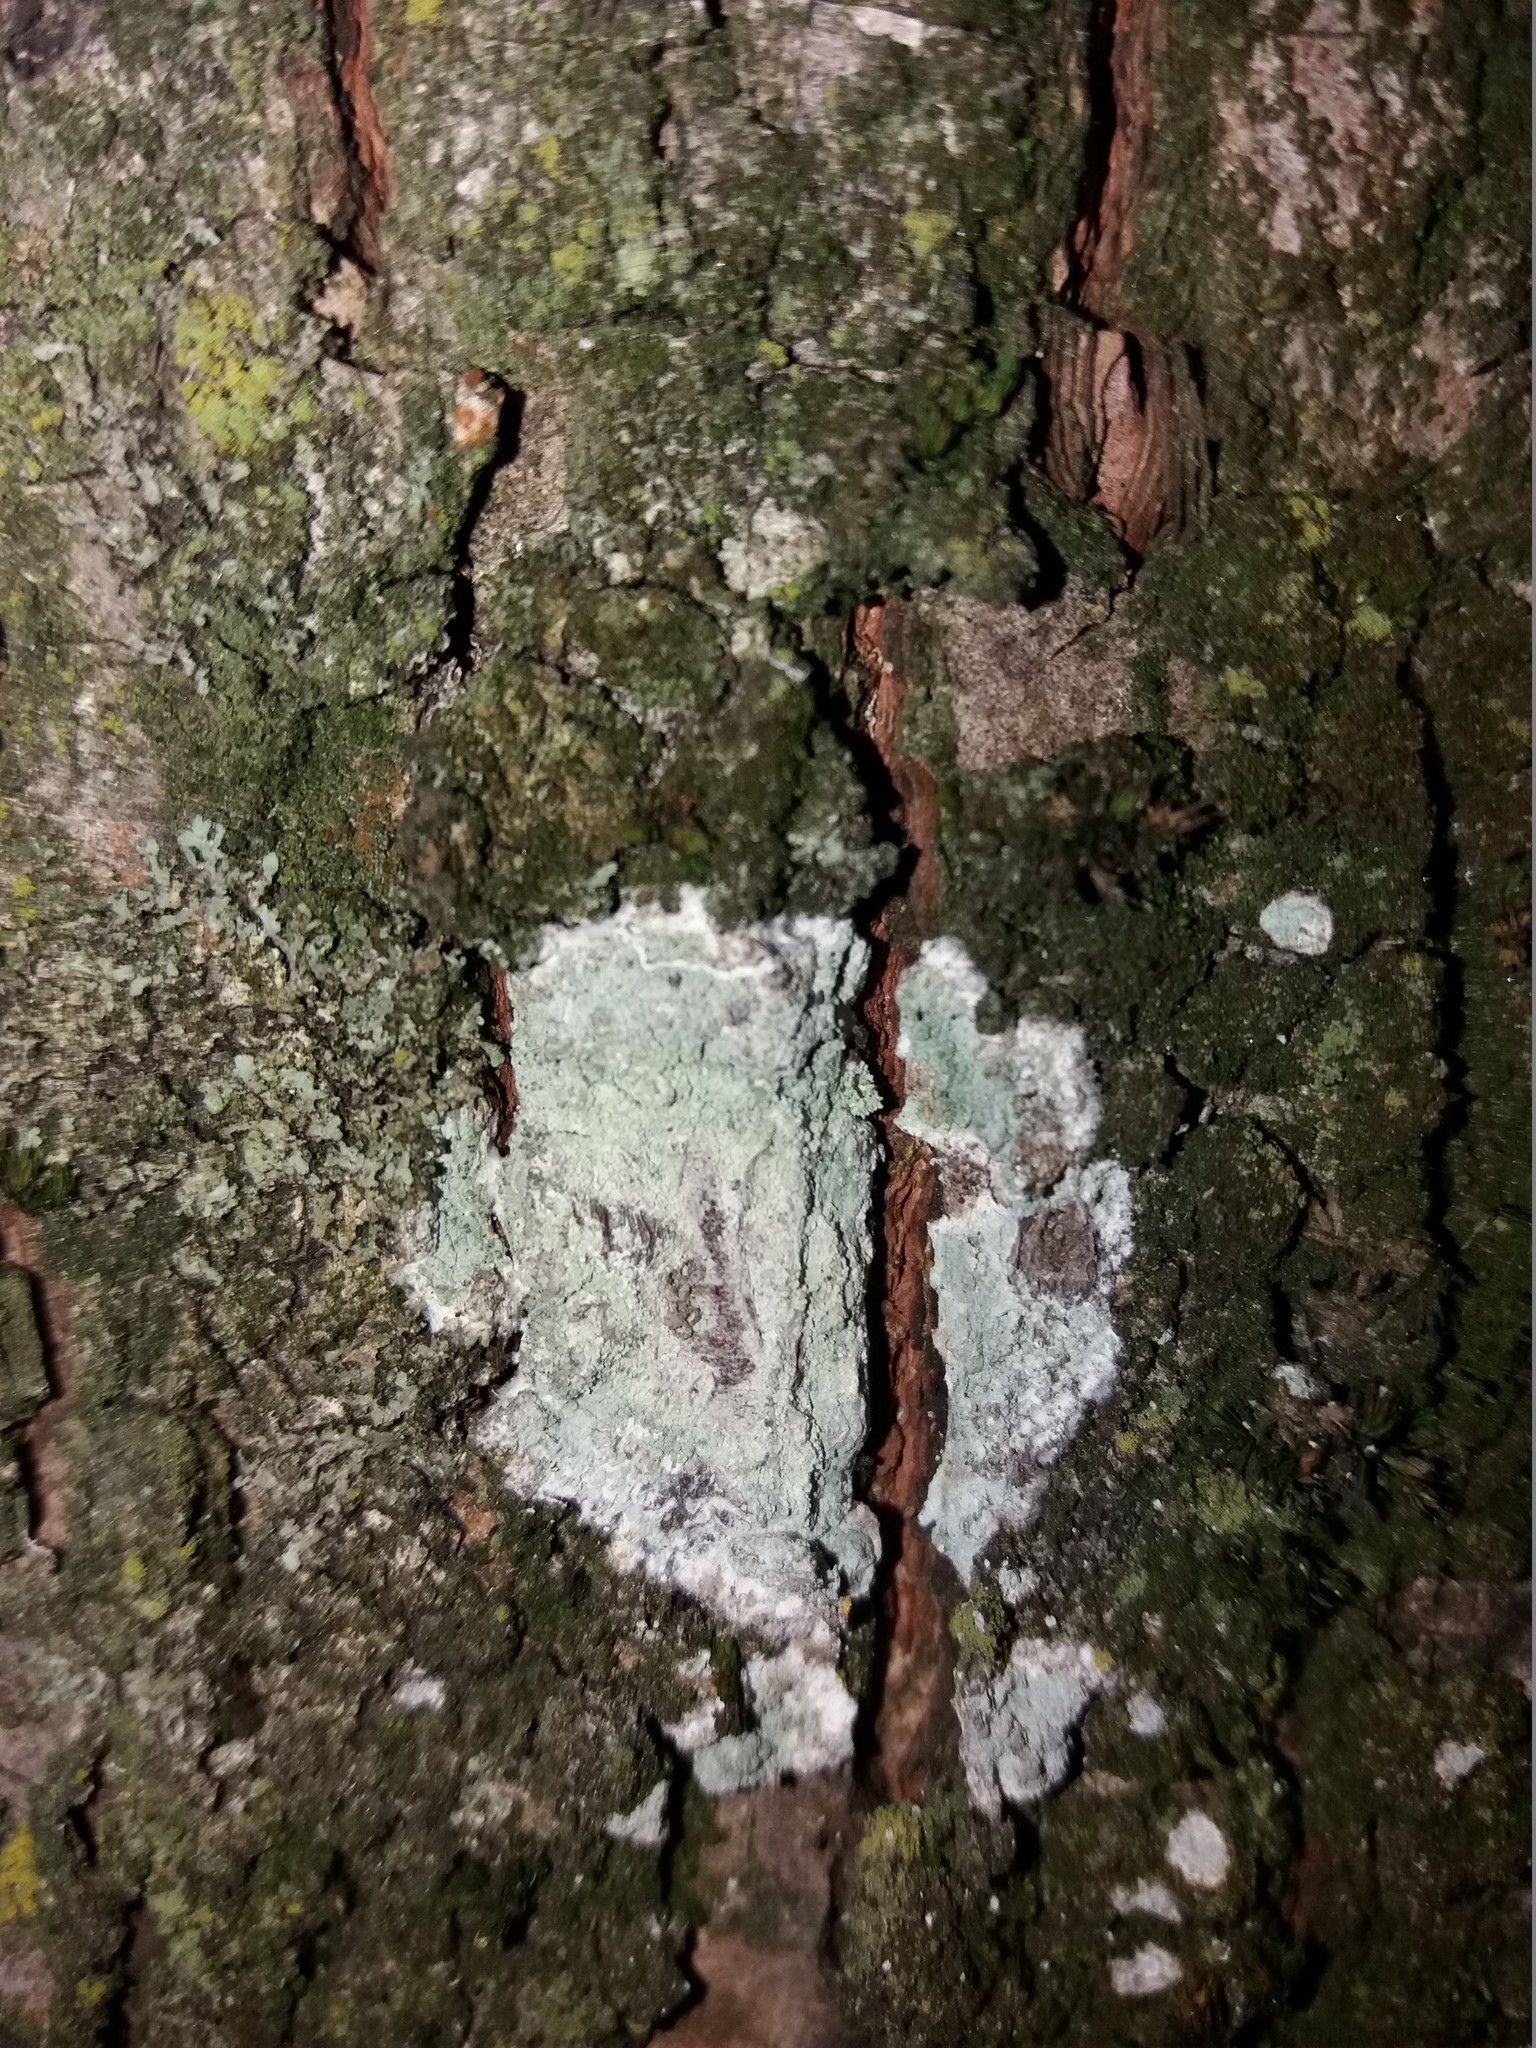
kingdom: Fungi
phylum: Ascomycota
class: Lecanoromycetes
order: Ostropales
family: Phlyctidaceae
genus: Phlyctis
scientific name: Phlyctis argena
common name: Whitewash lichen
